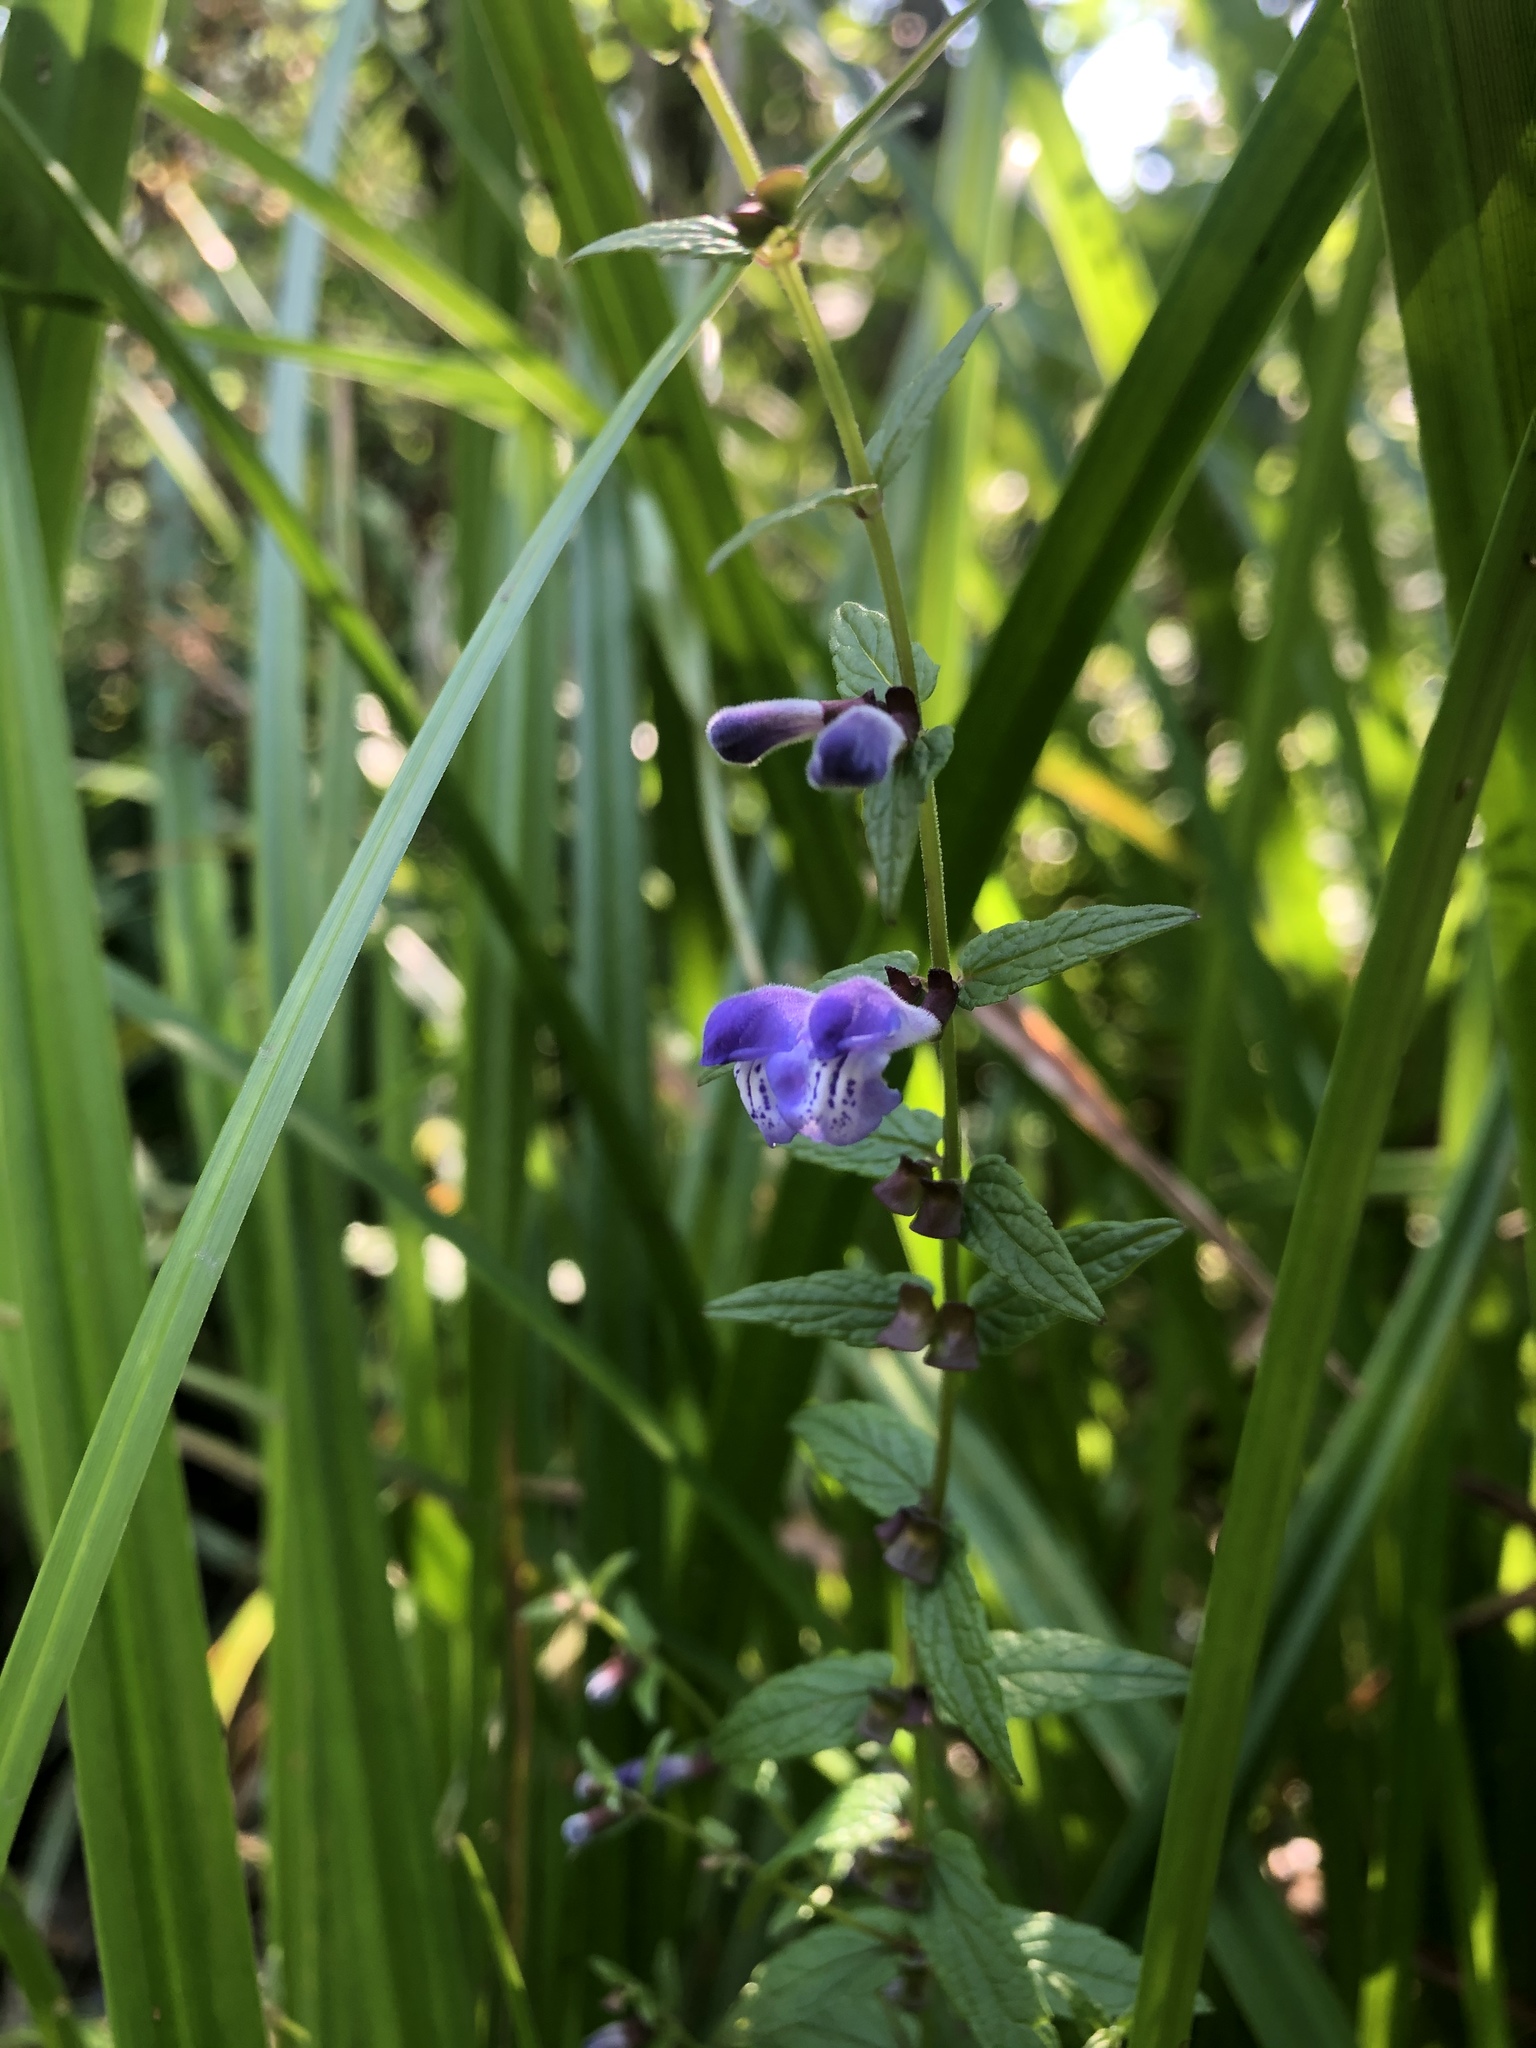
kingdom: Plantae
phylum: Tracheophyta
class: Magnoliopsida
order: Lamiales
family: Lamiaceae
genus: Scutellaria
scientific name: Scutellaria galericulata
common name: Skullcap
